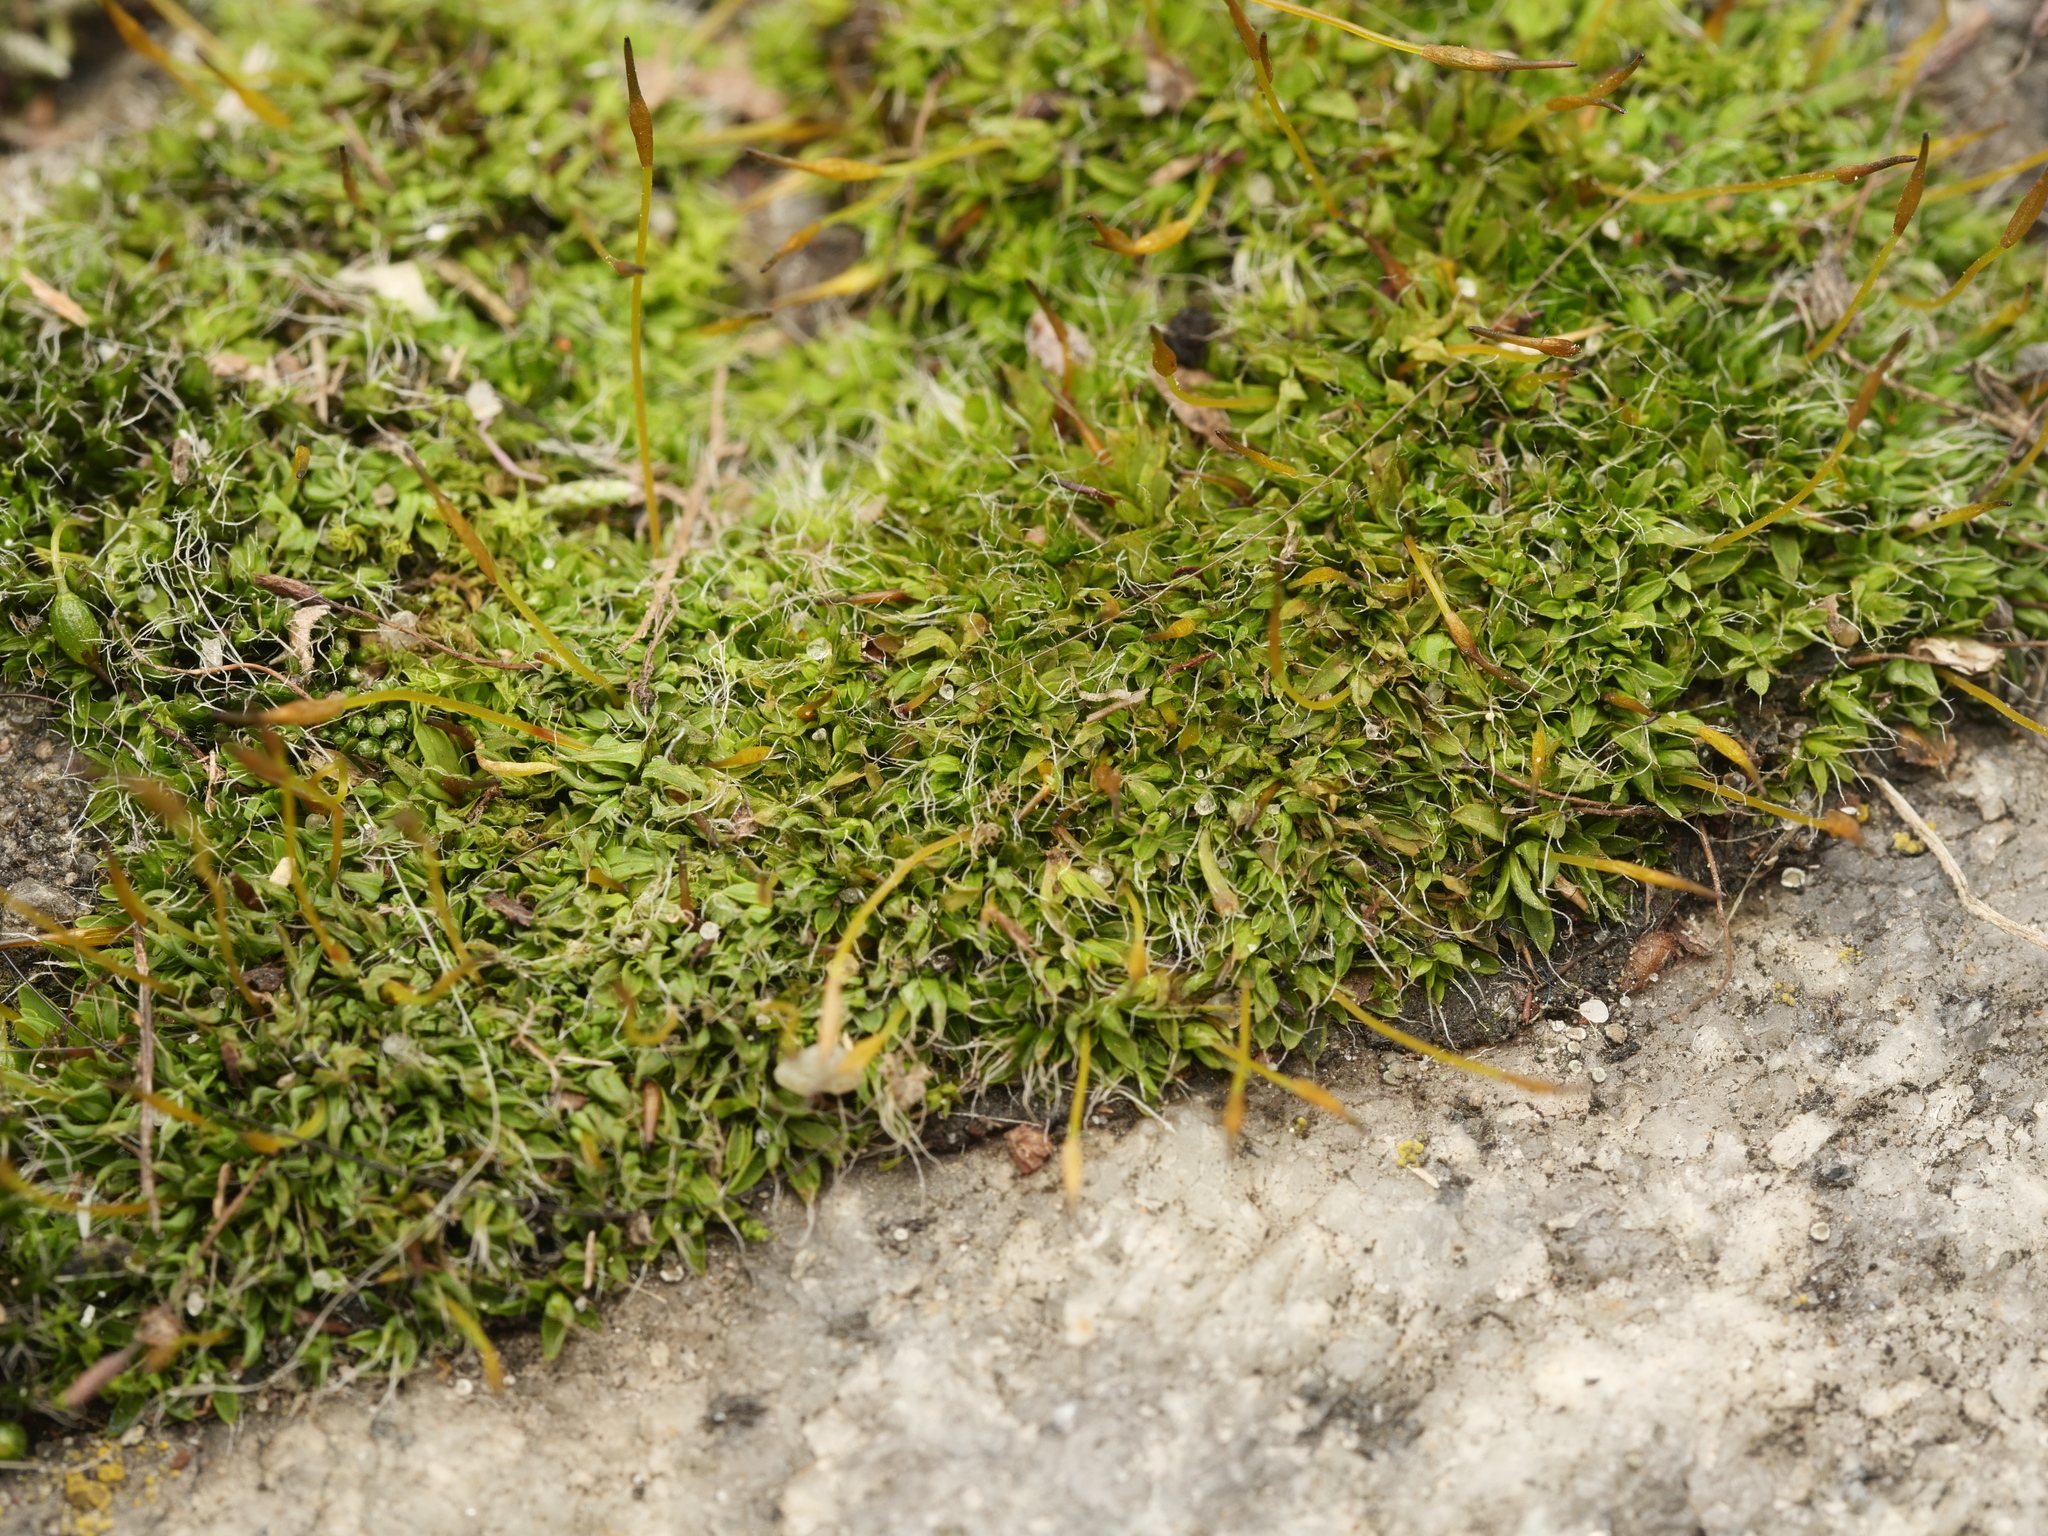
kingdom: Plantae
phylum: Bryophyta
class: Bryopsida
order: Pottiales
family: Pottiaceae
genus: Tortula
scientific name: Tortula muralis
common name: Wall screw-moss
